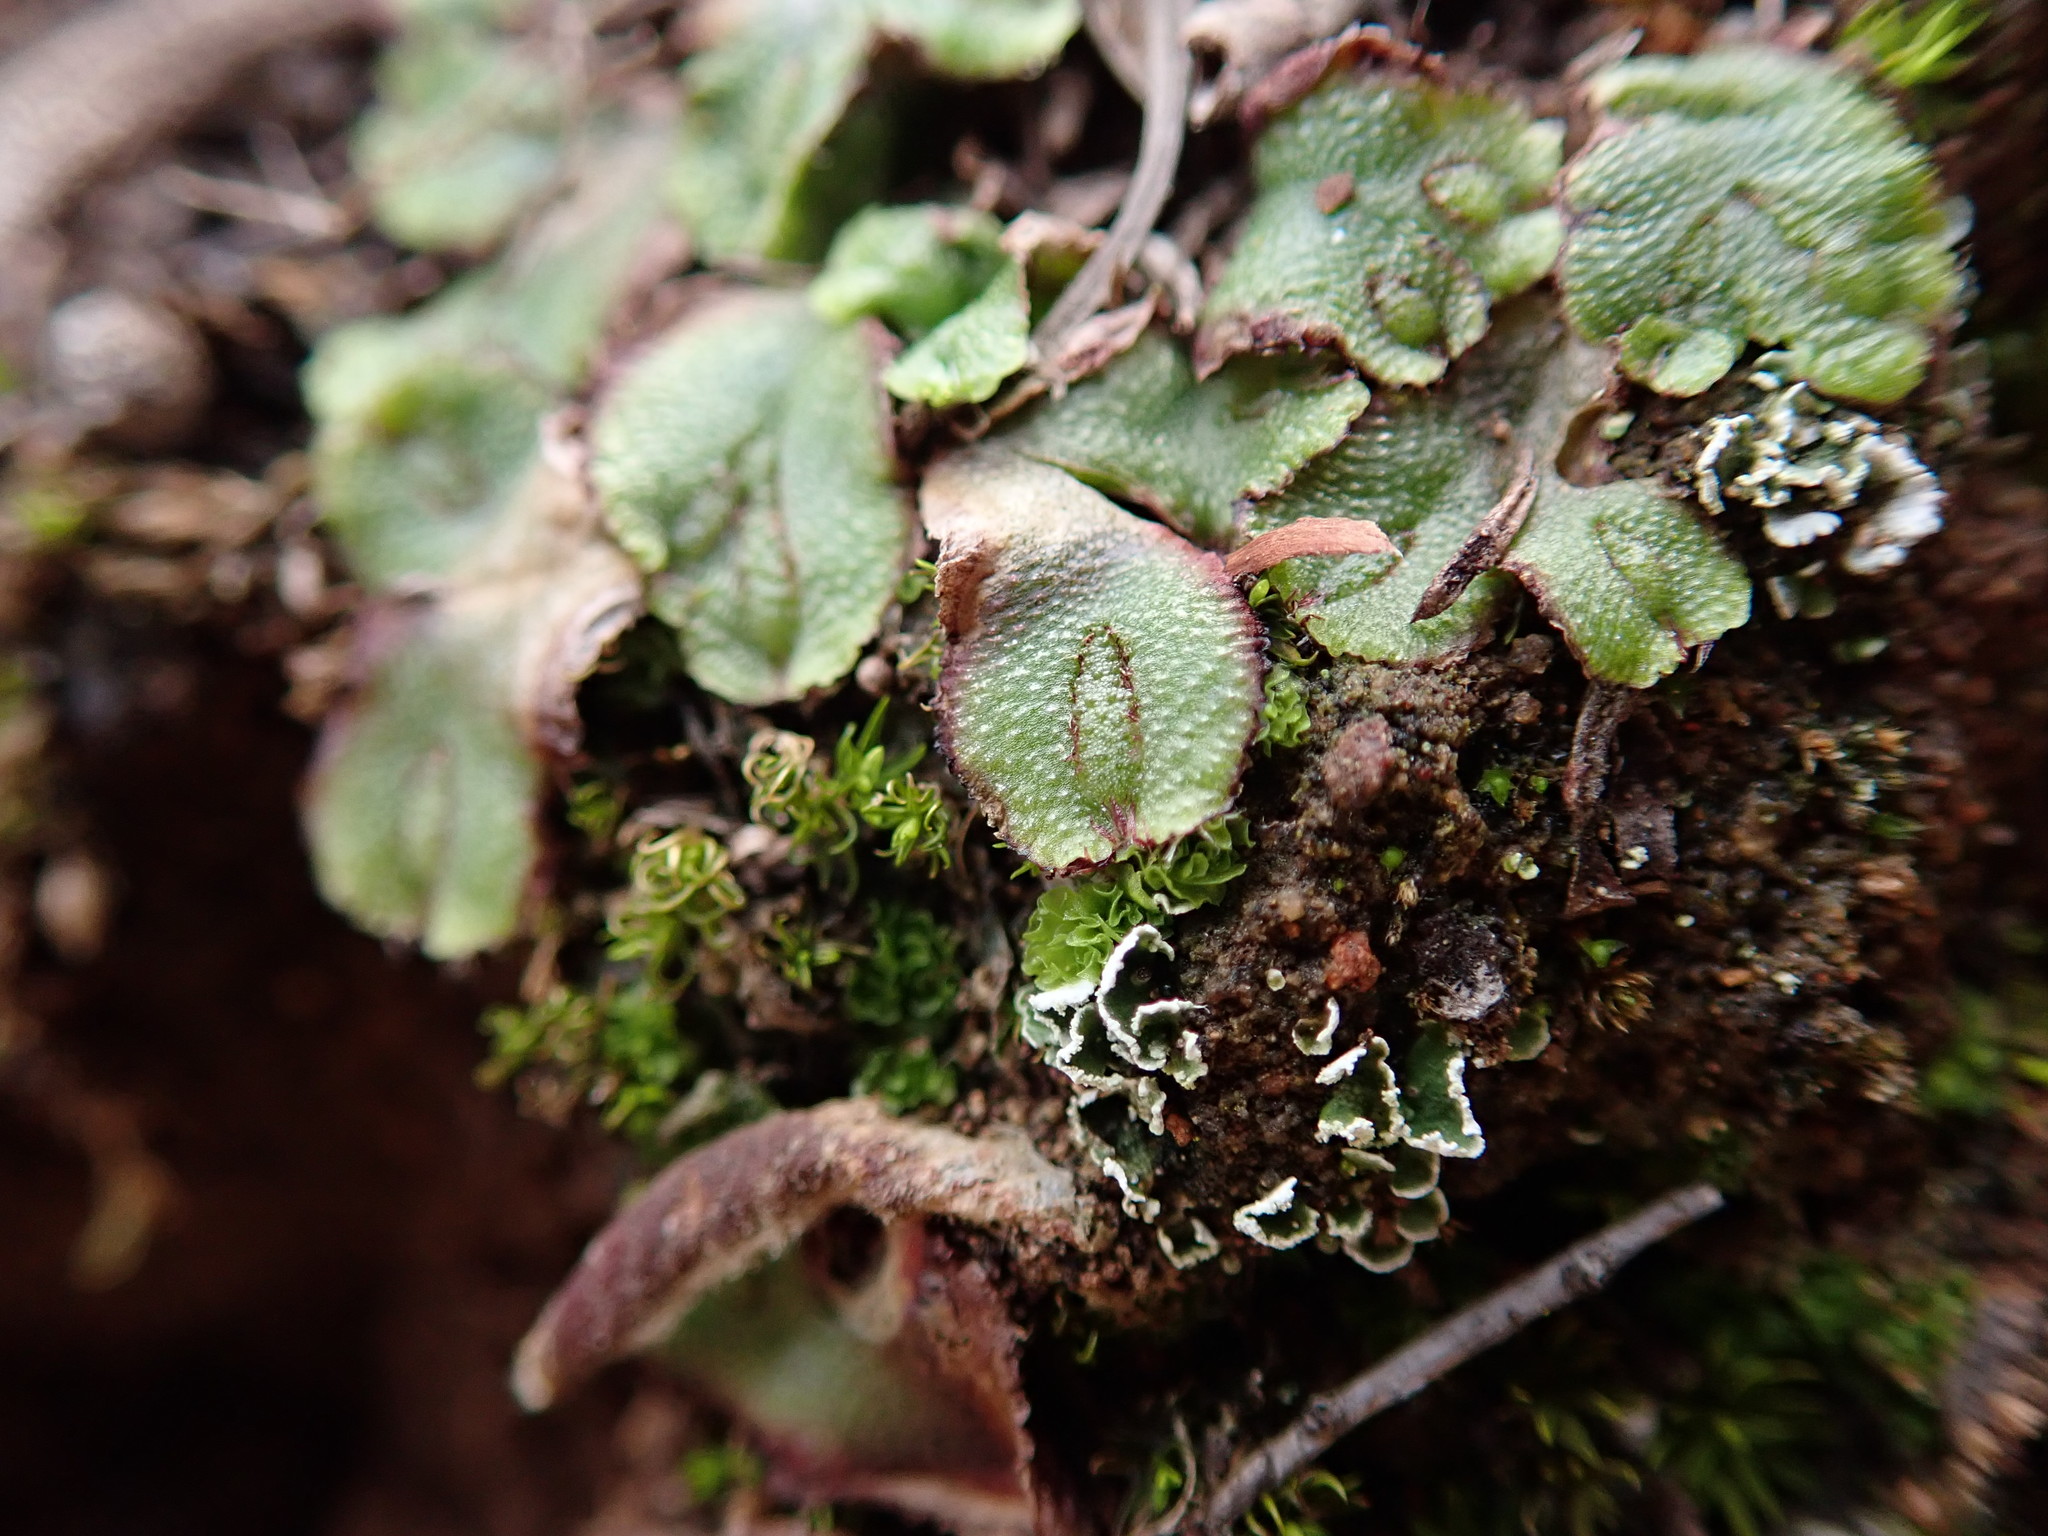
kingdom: Plantae
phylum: Marchantiophyta
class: Marchantiopsida
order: Marchantiales
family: Aytoniaceae
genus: Asterella
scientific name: Asterella californica
